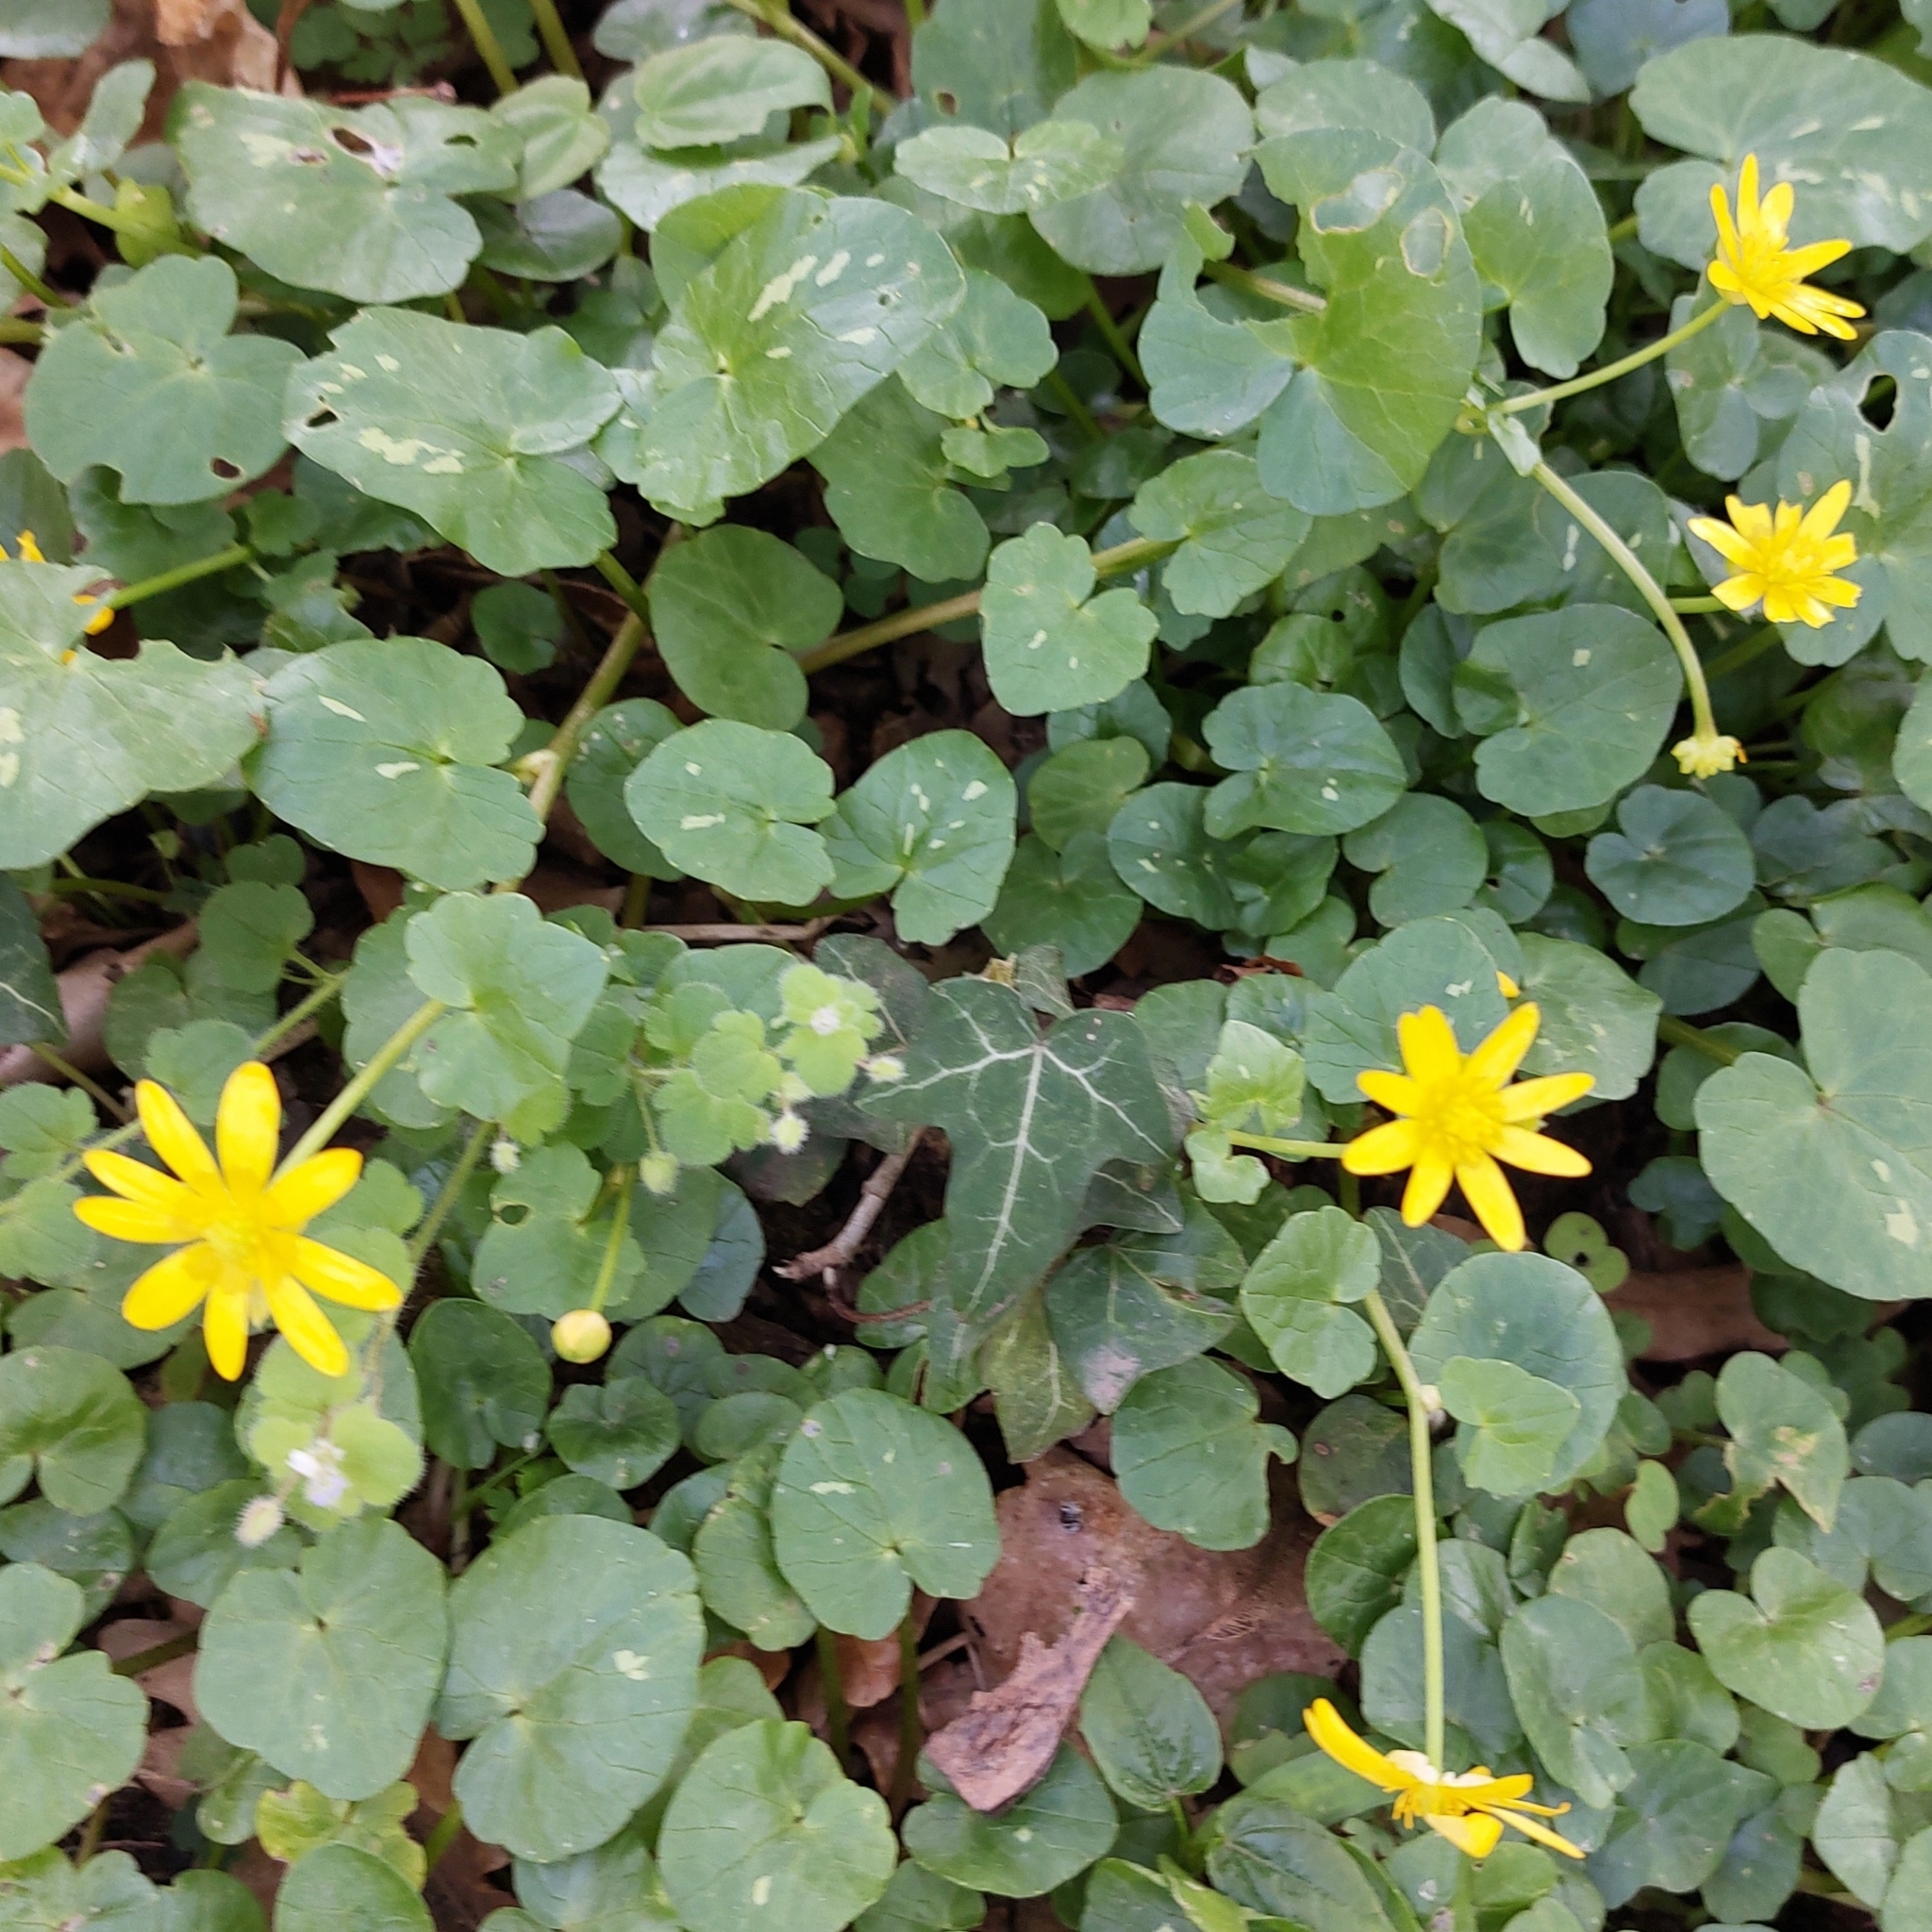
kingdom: Plantae
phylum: Tracheophyta
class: Magnoliopsida
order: Ranunculales
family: Ranunculaceae
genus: Ficaria
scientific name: Ficaria verna
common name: Lesser celandine
